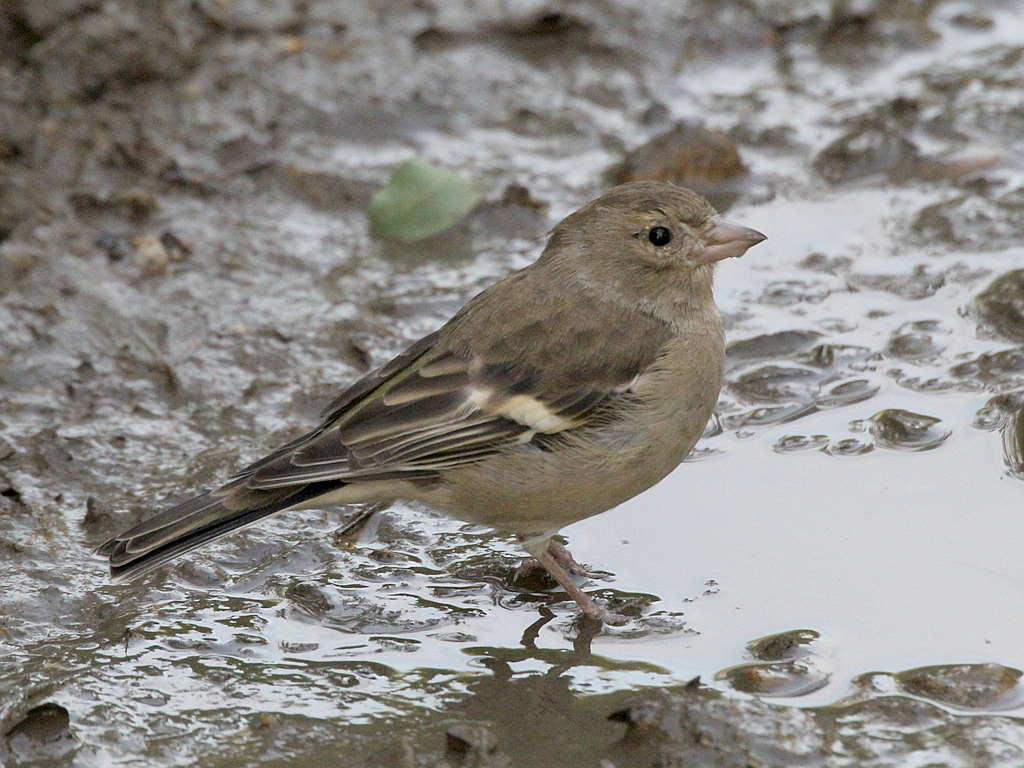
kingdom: Animalia
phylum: Chordata
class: Aves
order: Passeriformes
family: Fringillidae
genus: Fringilla
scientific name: Fringilla coelebs
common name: Common chaffinch
